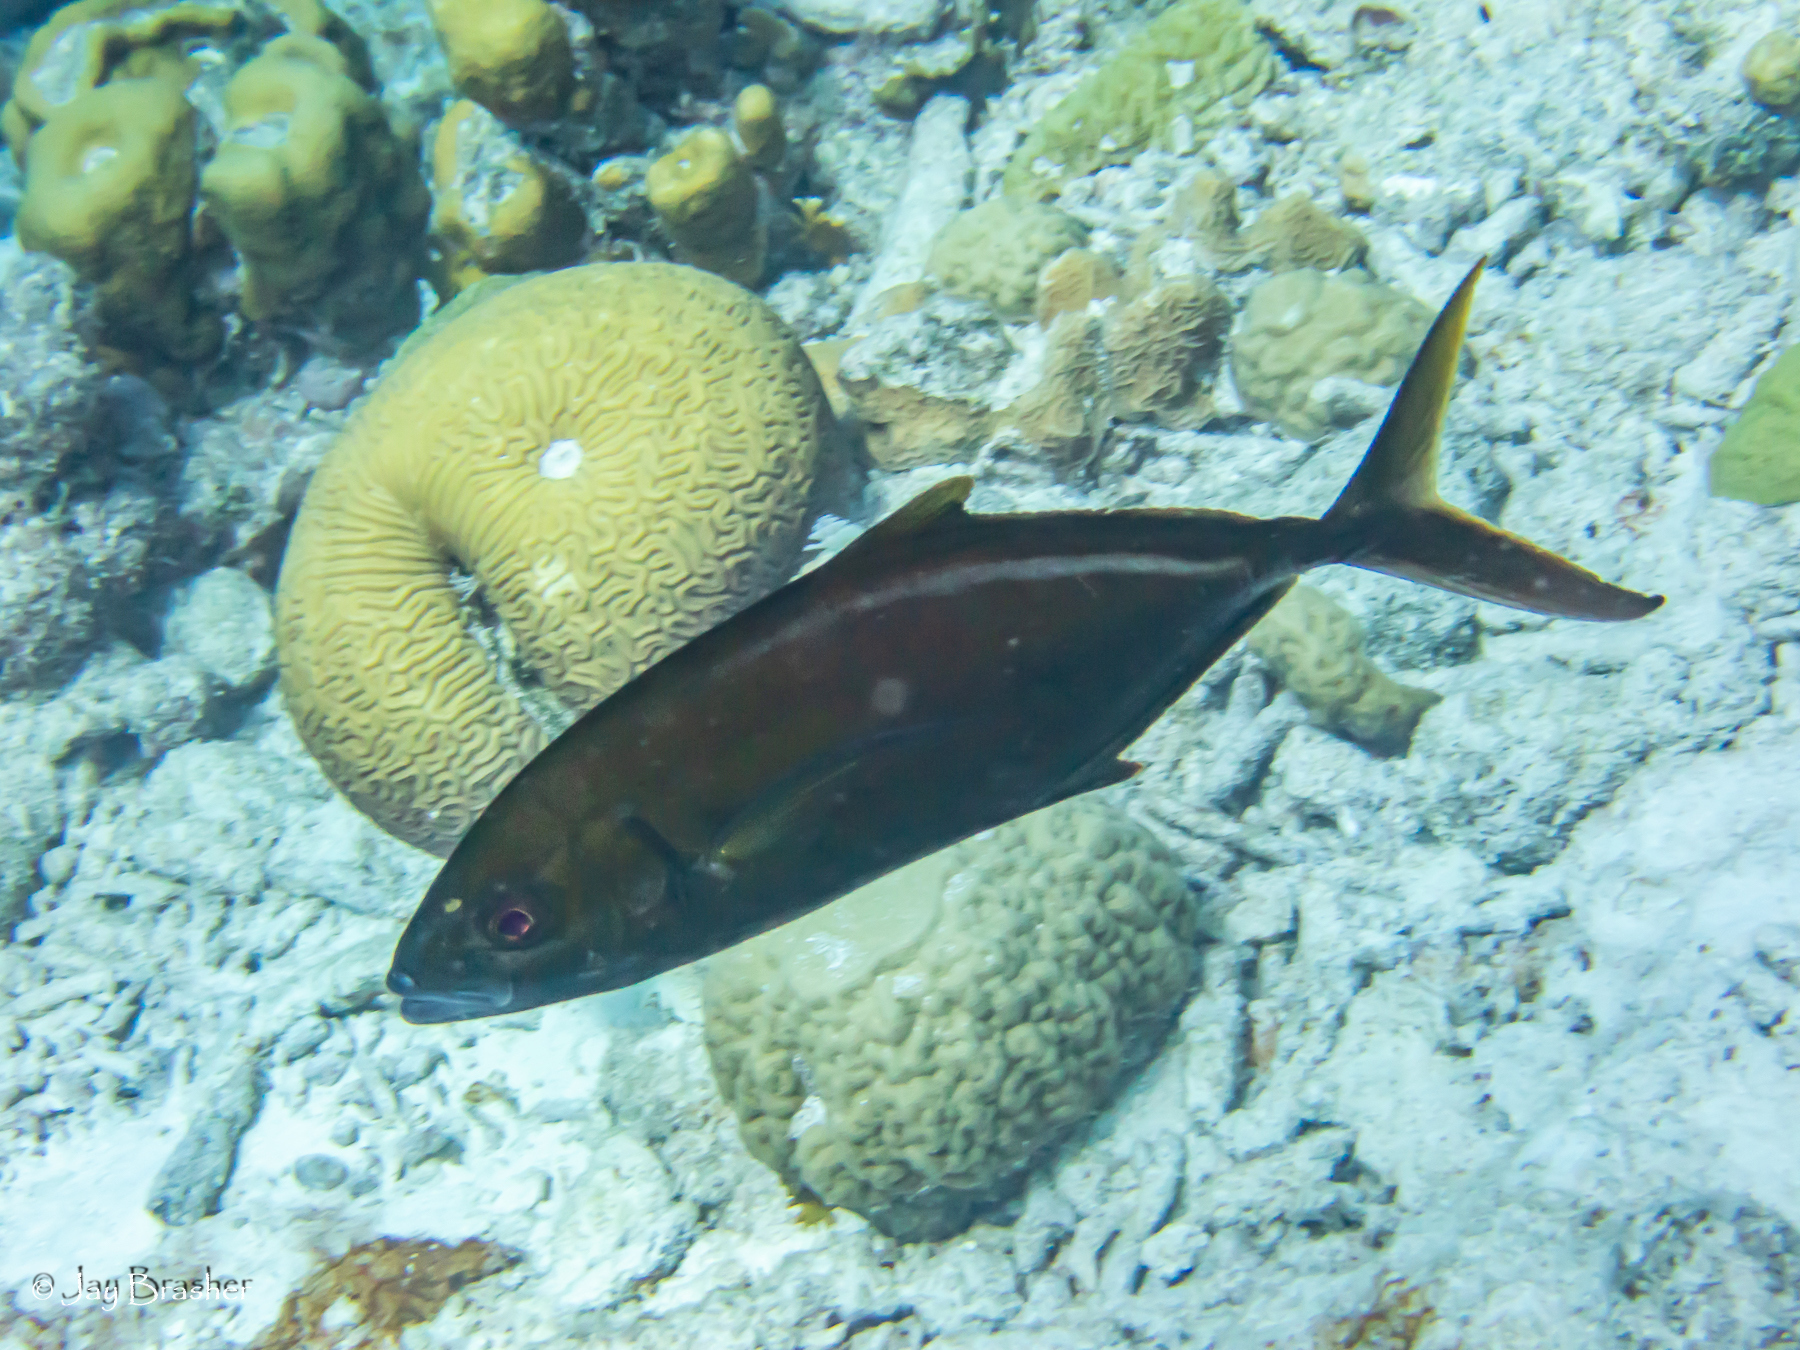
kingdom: Animalia
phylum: Chordata
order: Perciformes
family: Carangidae
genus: Caranx
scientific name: Caranx ruber
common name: Bar jack
